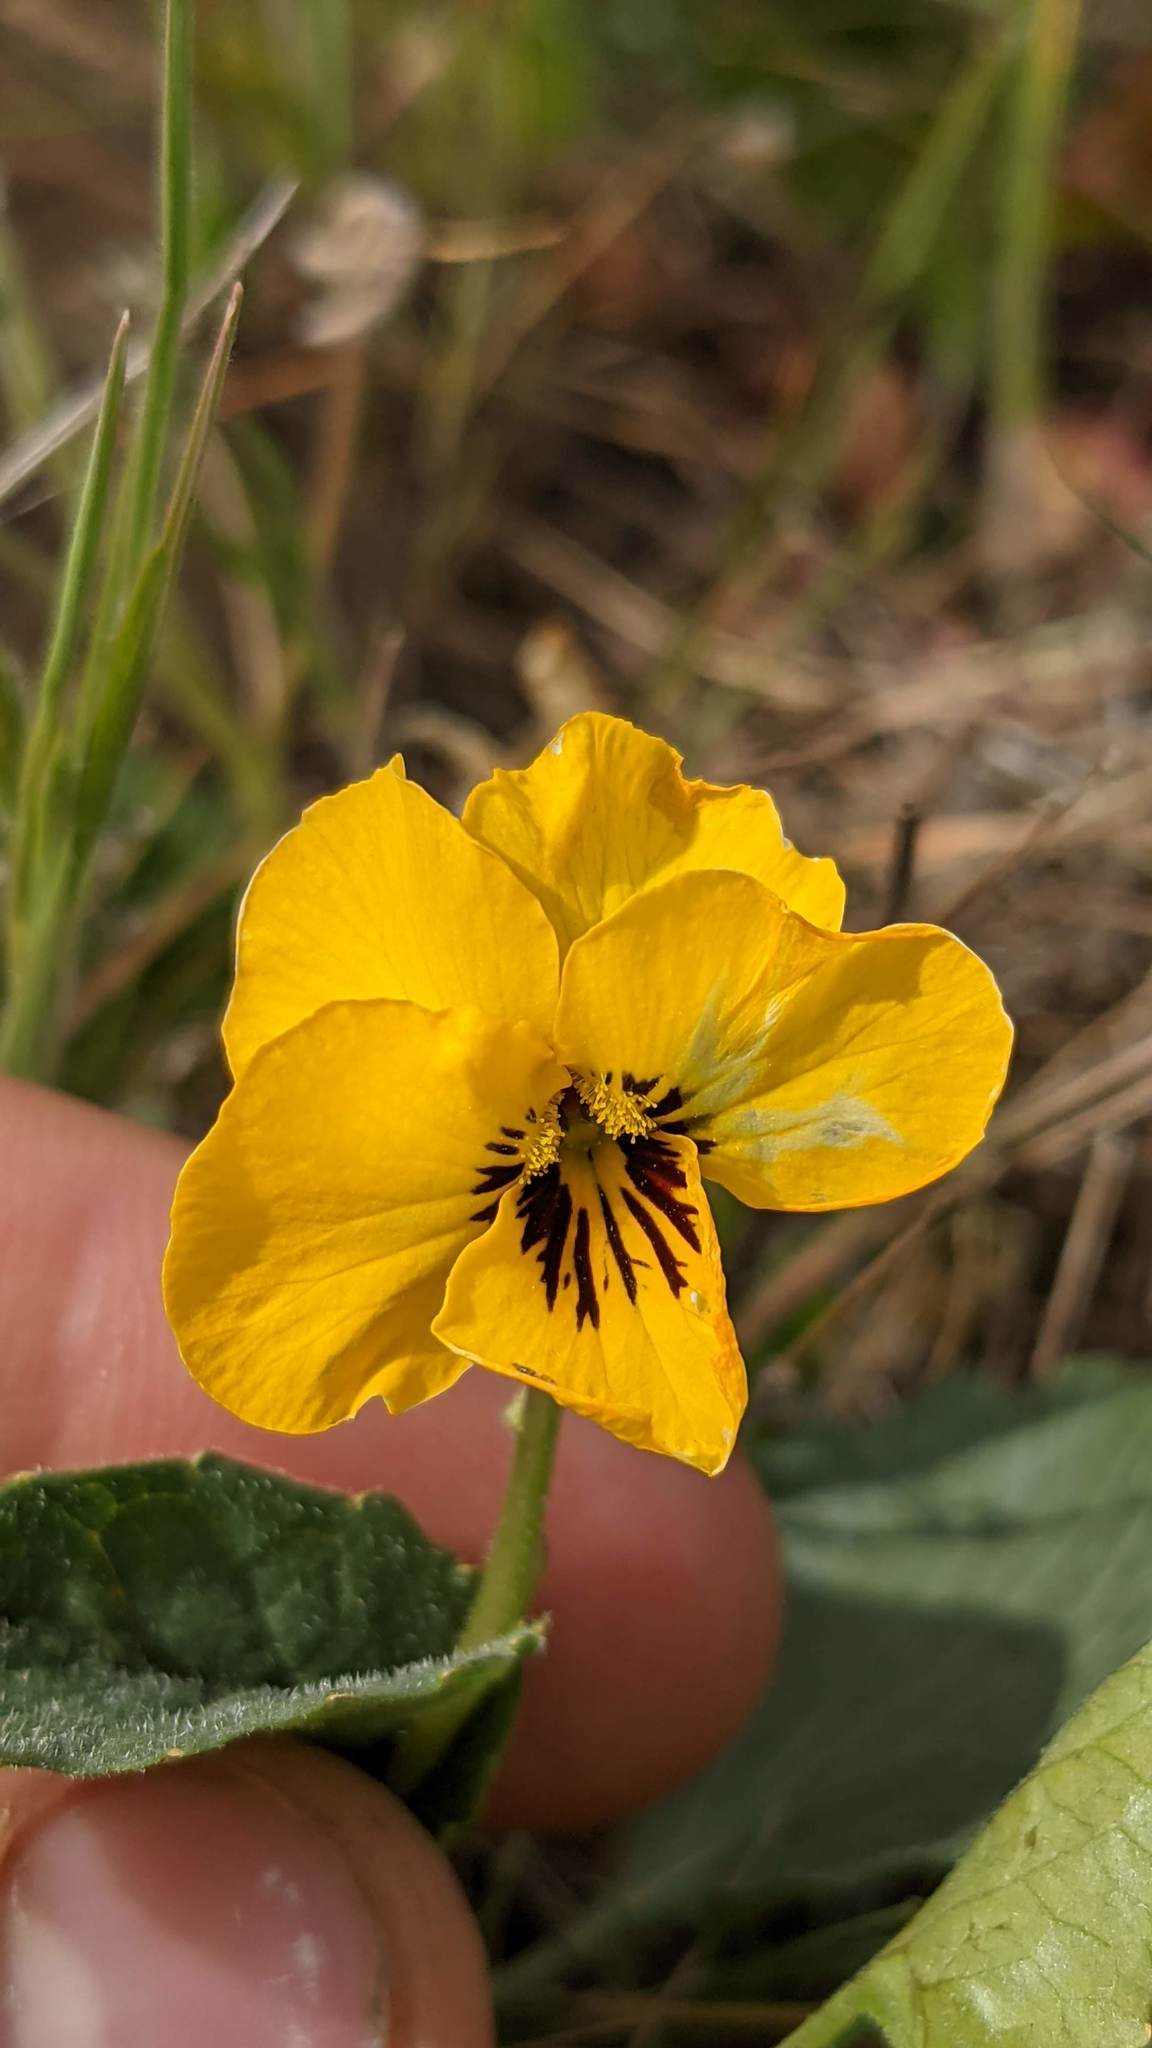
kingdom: Plantae
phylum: Tracheophyta
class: Magnoliopsida
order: Malpighiales
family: Violaceae
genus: Viola
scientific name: Viola pedunculata
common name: California golden violet
